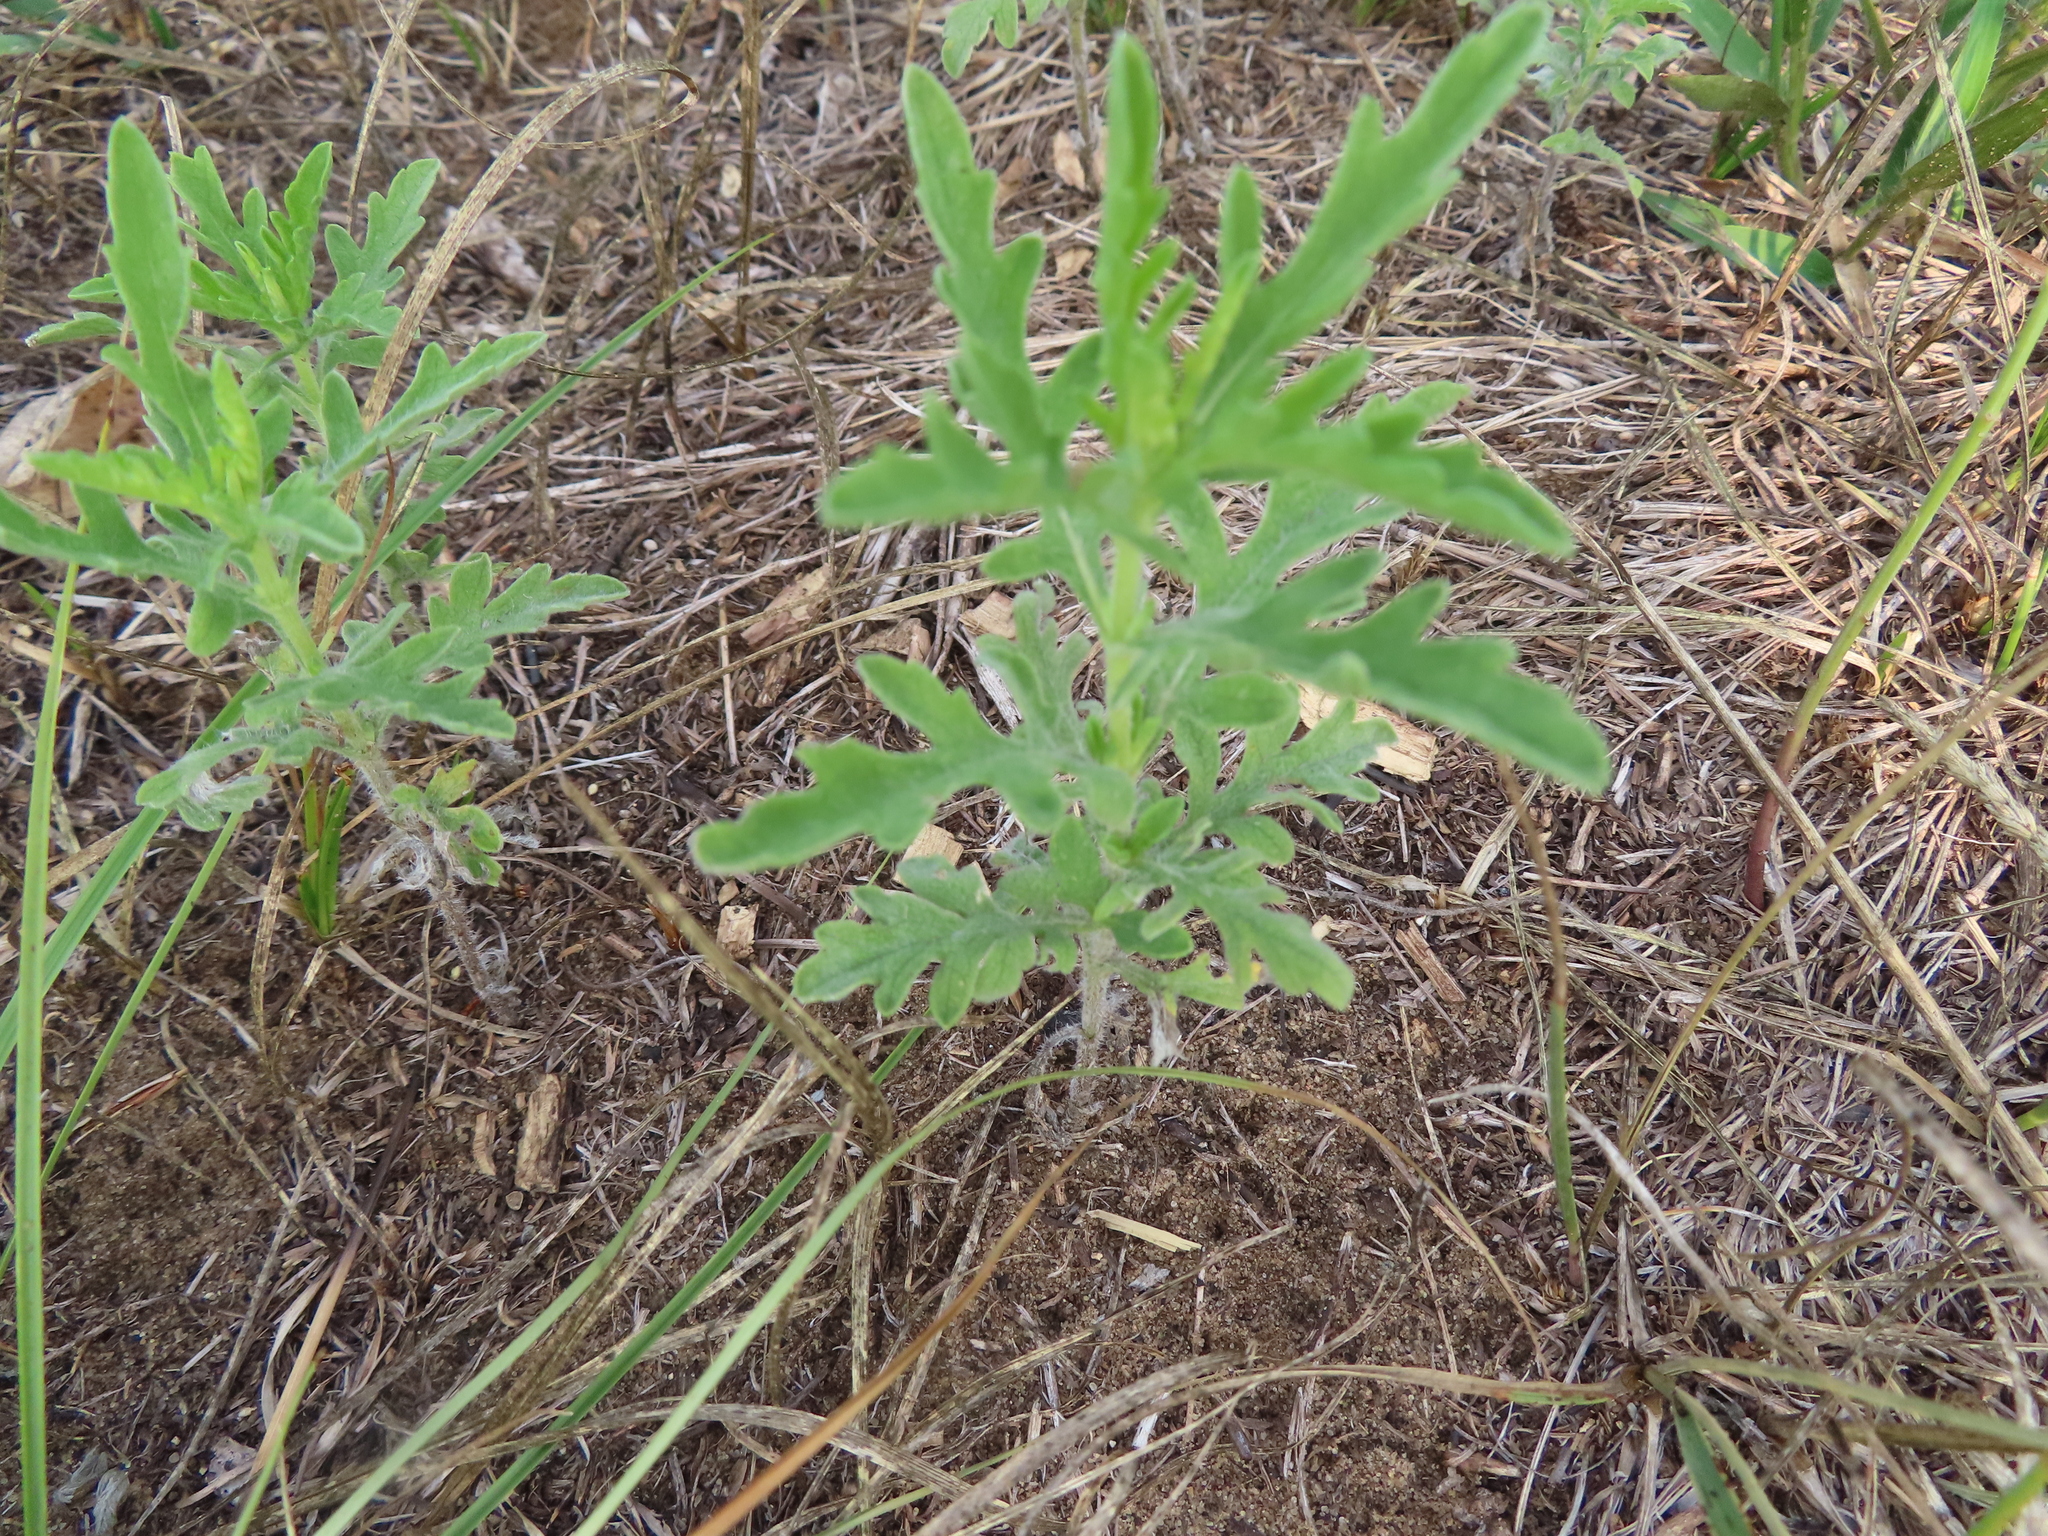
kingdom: Plantae
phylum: Tracheophyta
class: Magnoliopsida
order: Asterales
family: Asteraceae
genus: Ambrosia
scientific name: Ambrosia psilostachya
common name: Perennial ragweed
